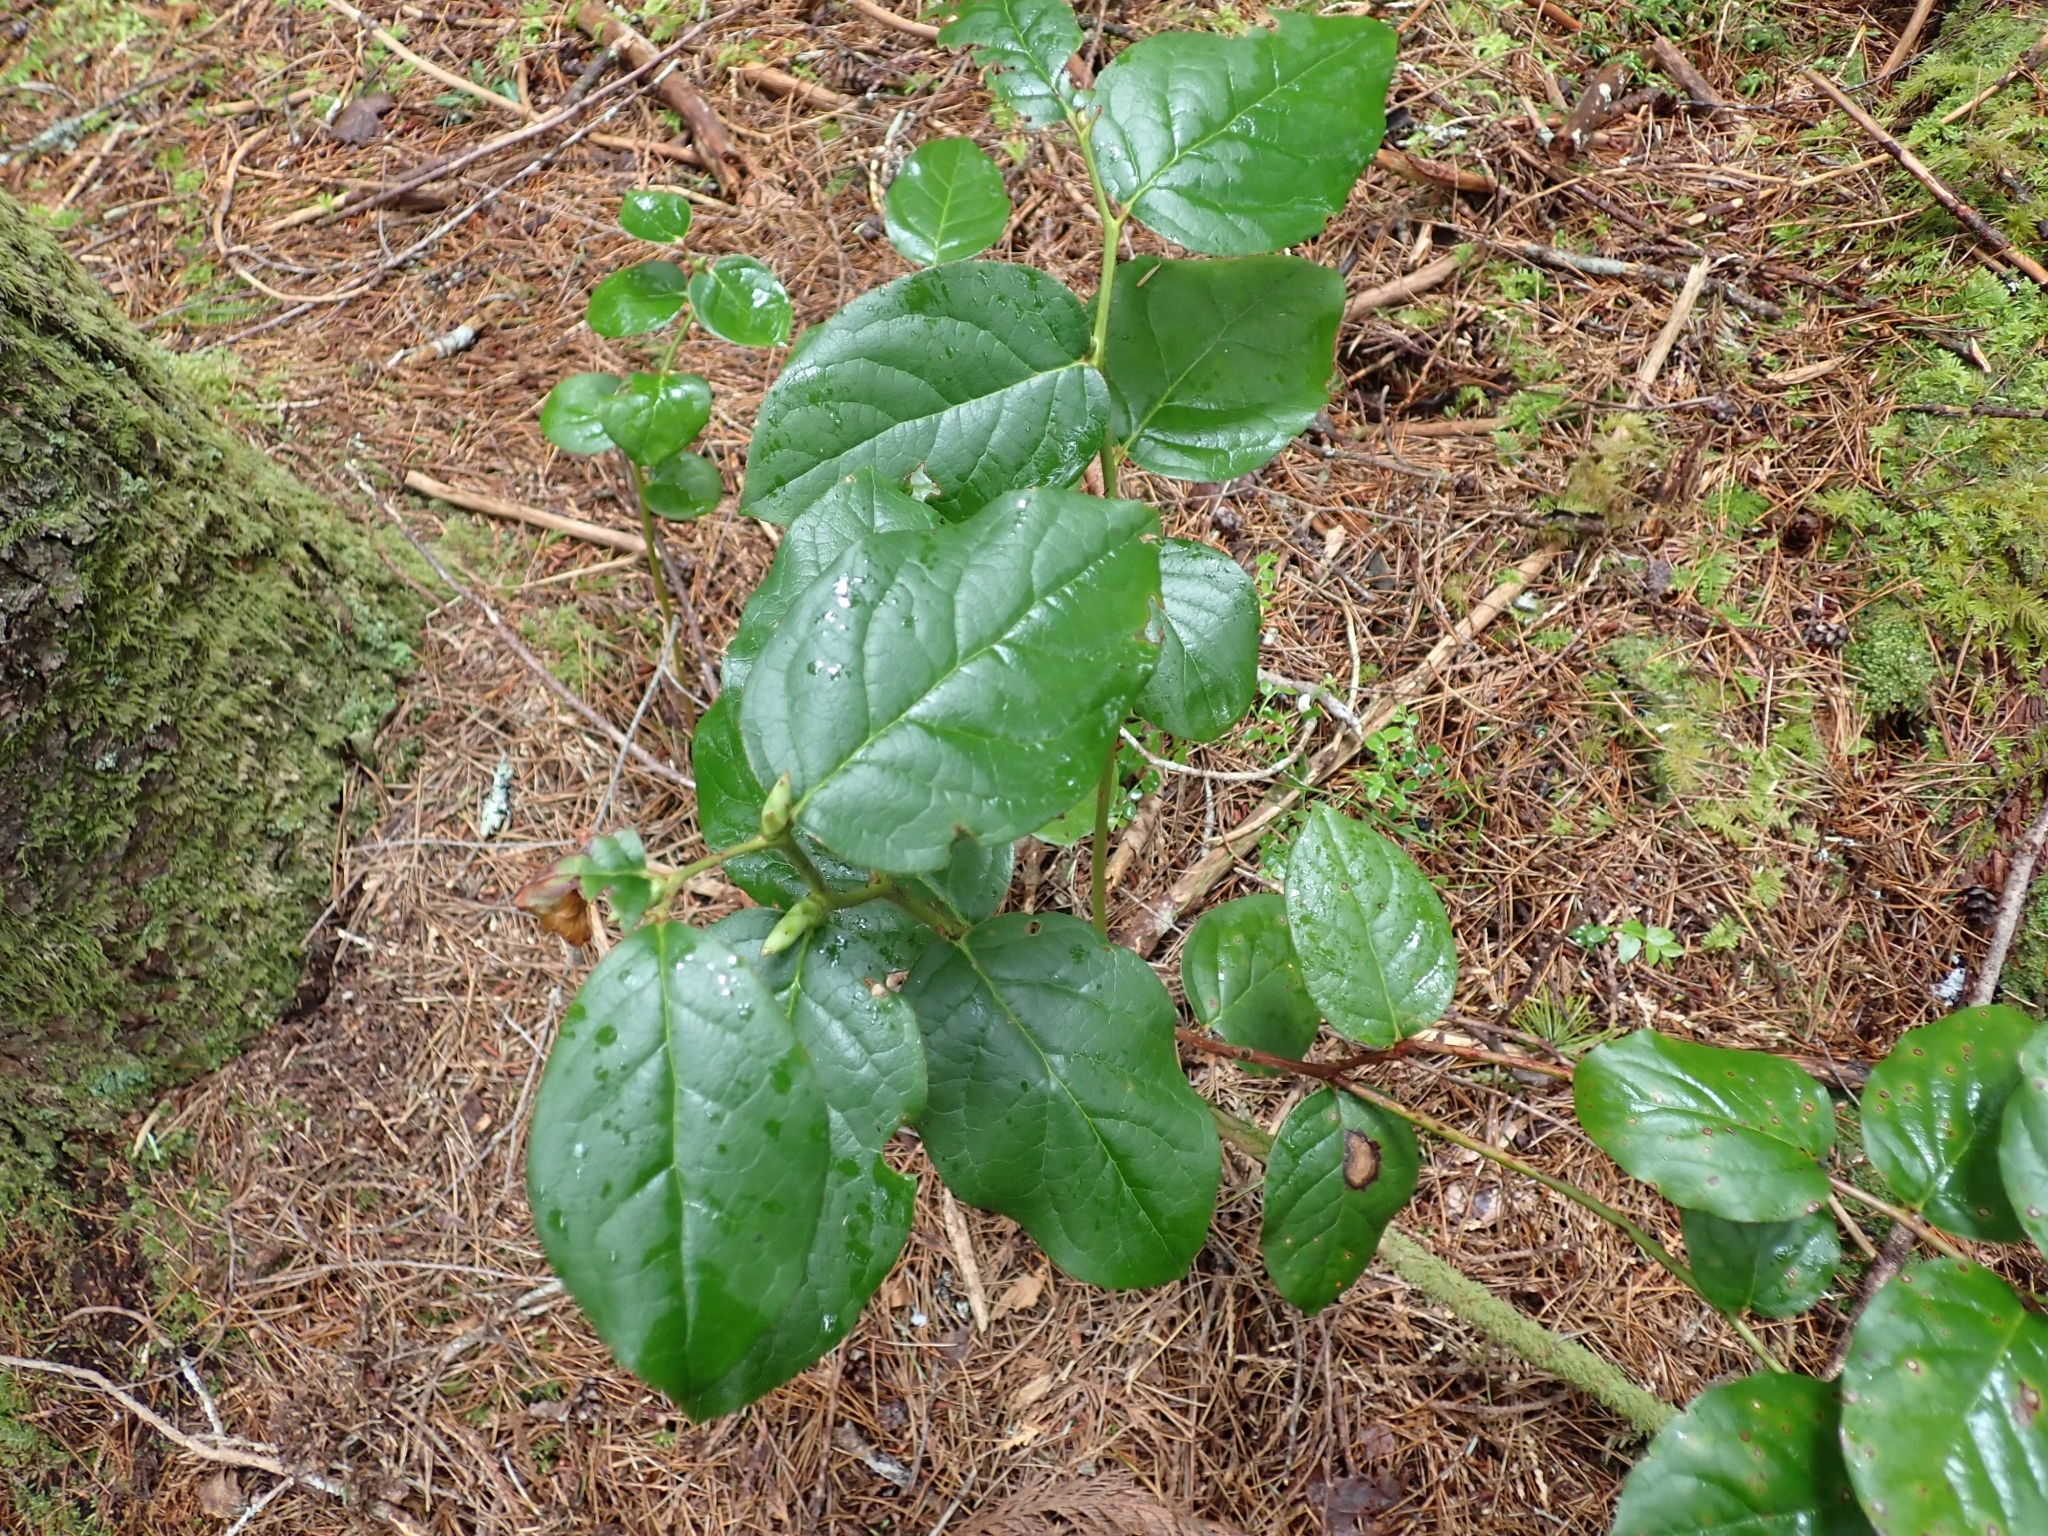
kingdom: Plantae
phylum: Tracheophyta
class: Magnoliopsida
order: Ericales
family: Ericaceae
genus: Gaultheria
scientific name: Gaultheria shallon
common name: Shallon
